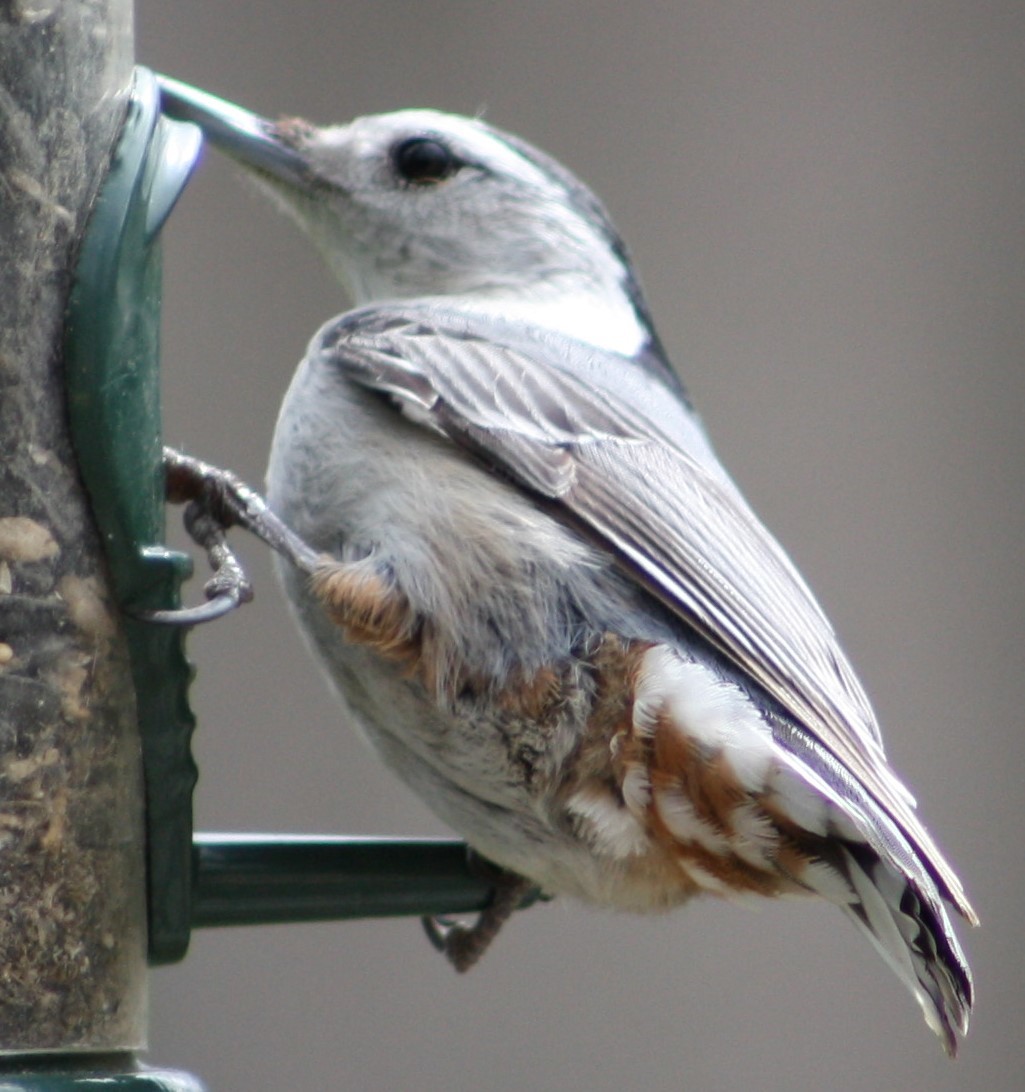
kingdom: Animalia
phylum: Chordata
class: Aves
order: Passeriformes
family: Sittidae
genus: Sitta
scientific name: Sitta carolinensis
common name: White-breasted nuthatch
